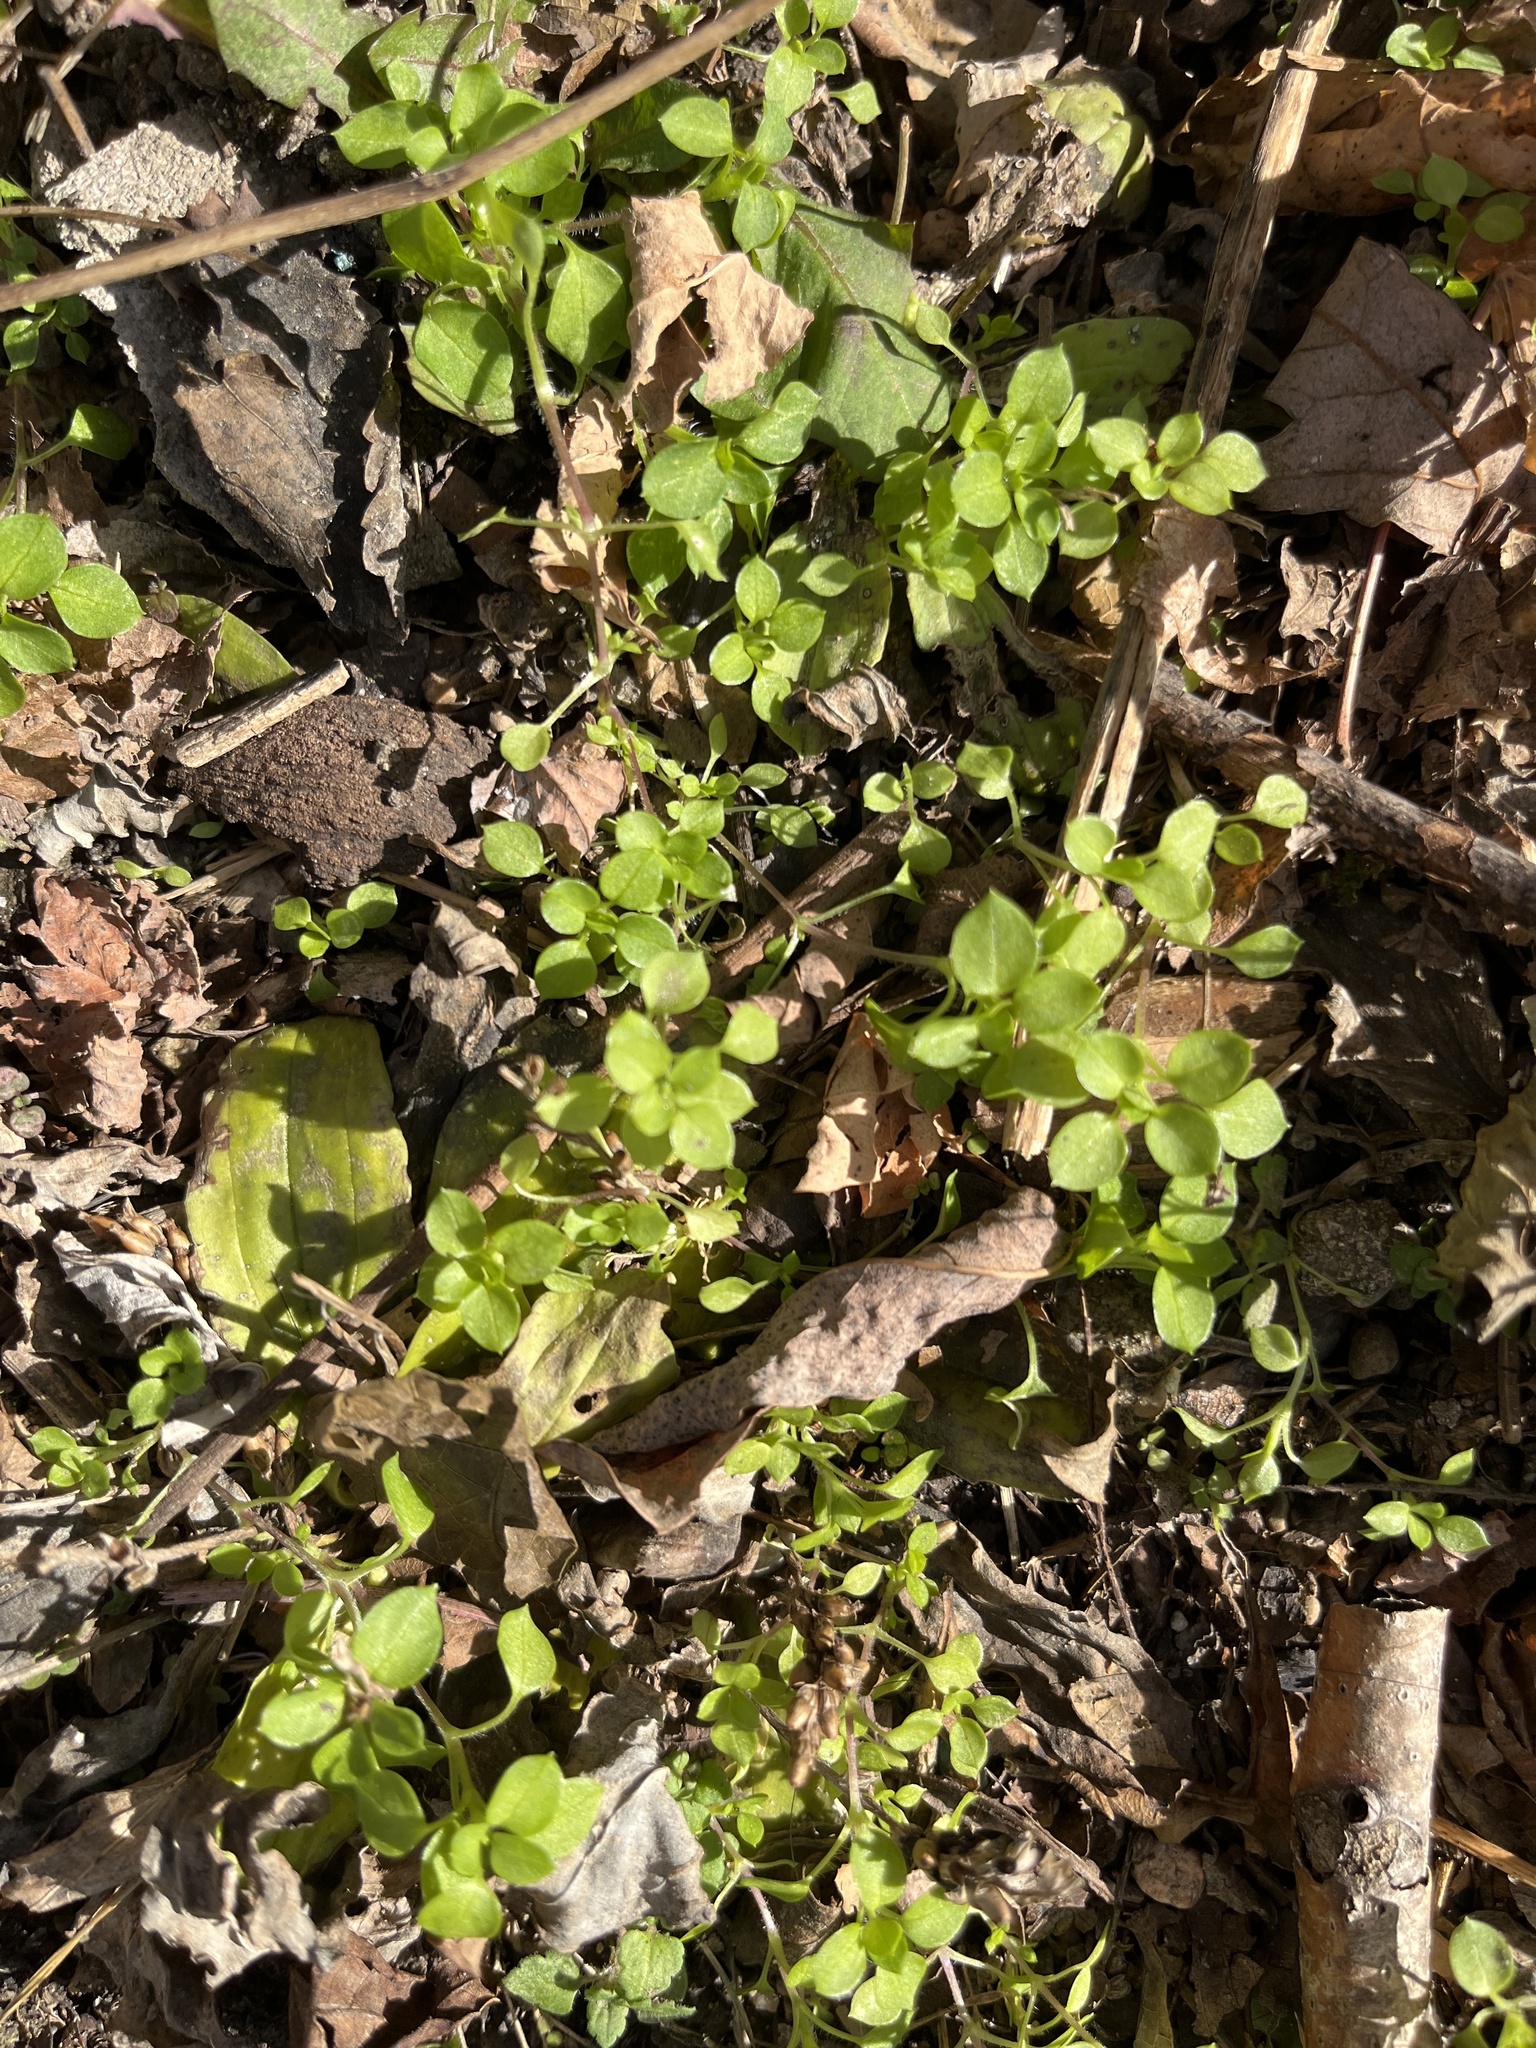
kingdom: Plantae
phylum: Tracheophyta
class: Magnoliopsida
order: Caryophyllales
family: Caryophyllaceae
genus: Stellaria
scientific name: Stellaria media
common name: Common chickweed
